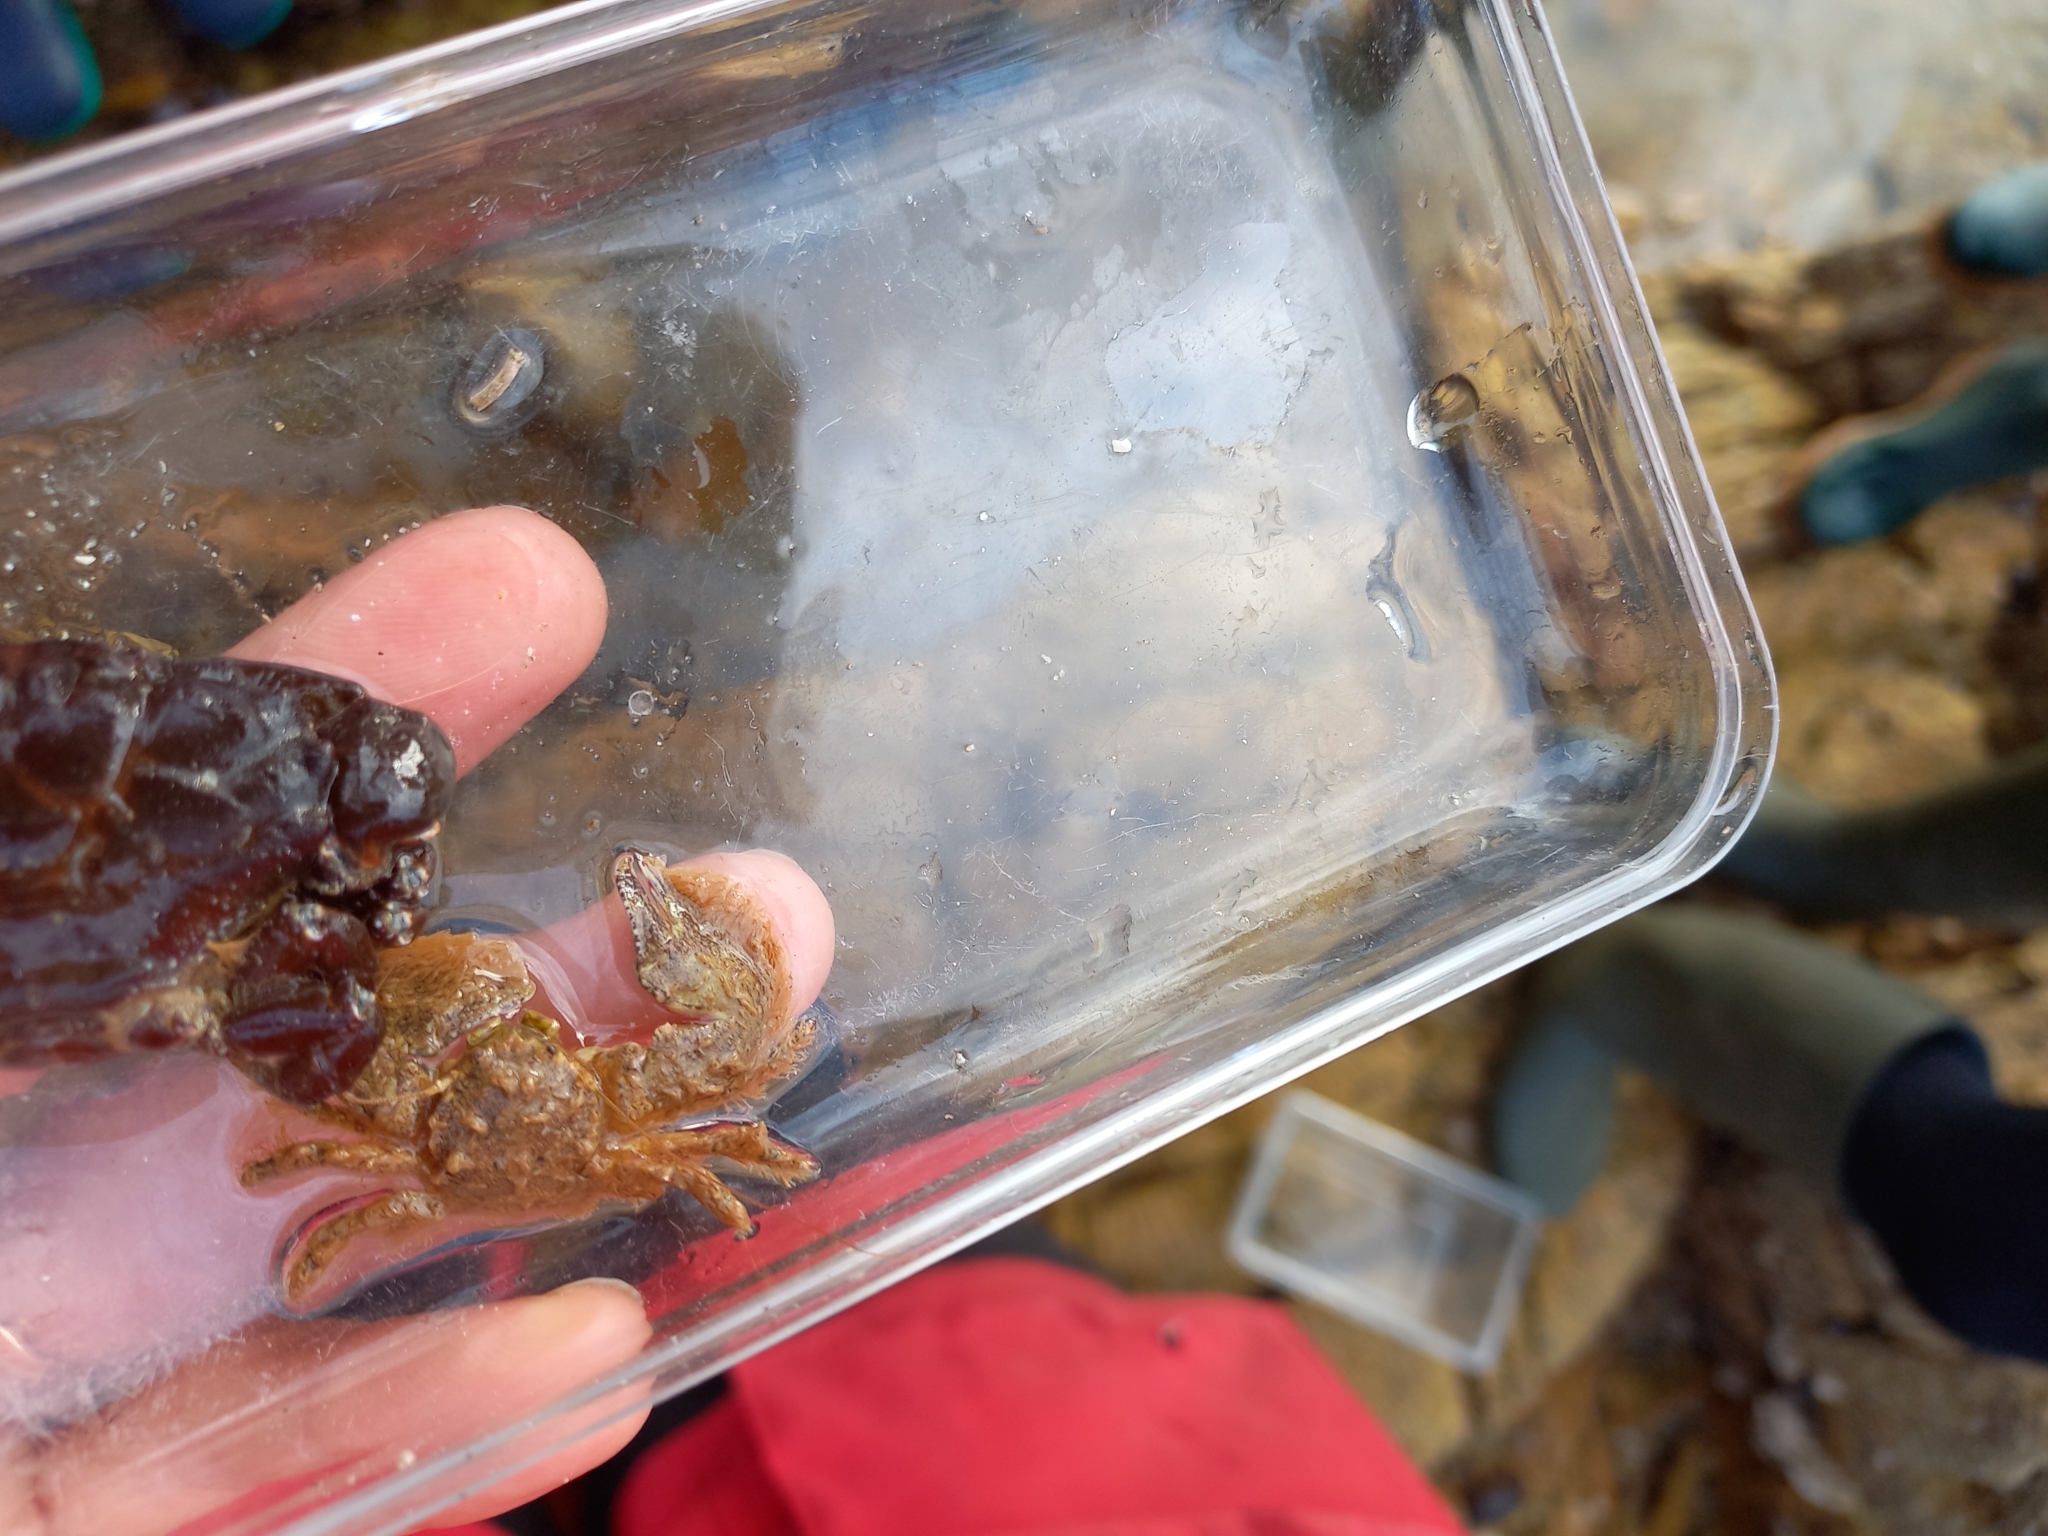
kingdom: Animalia
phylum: Arthropoda
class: Malacostraca
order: Decapoda
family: Porcellanidae
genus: Porcellana
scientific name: Porcellana platycheles
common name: Porcelain crab
